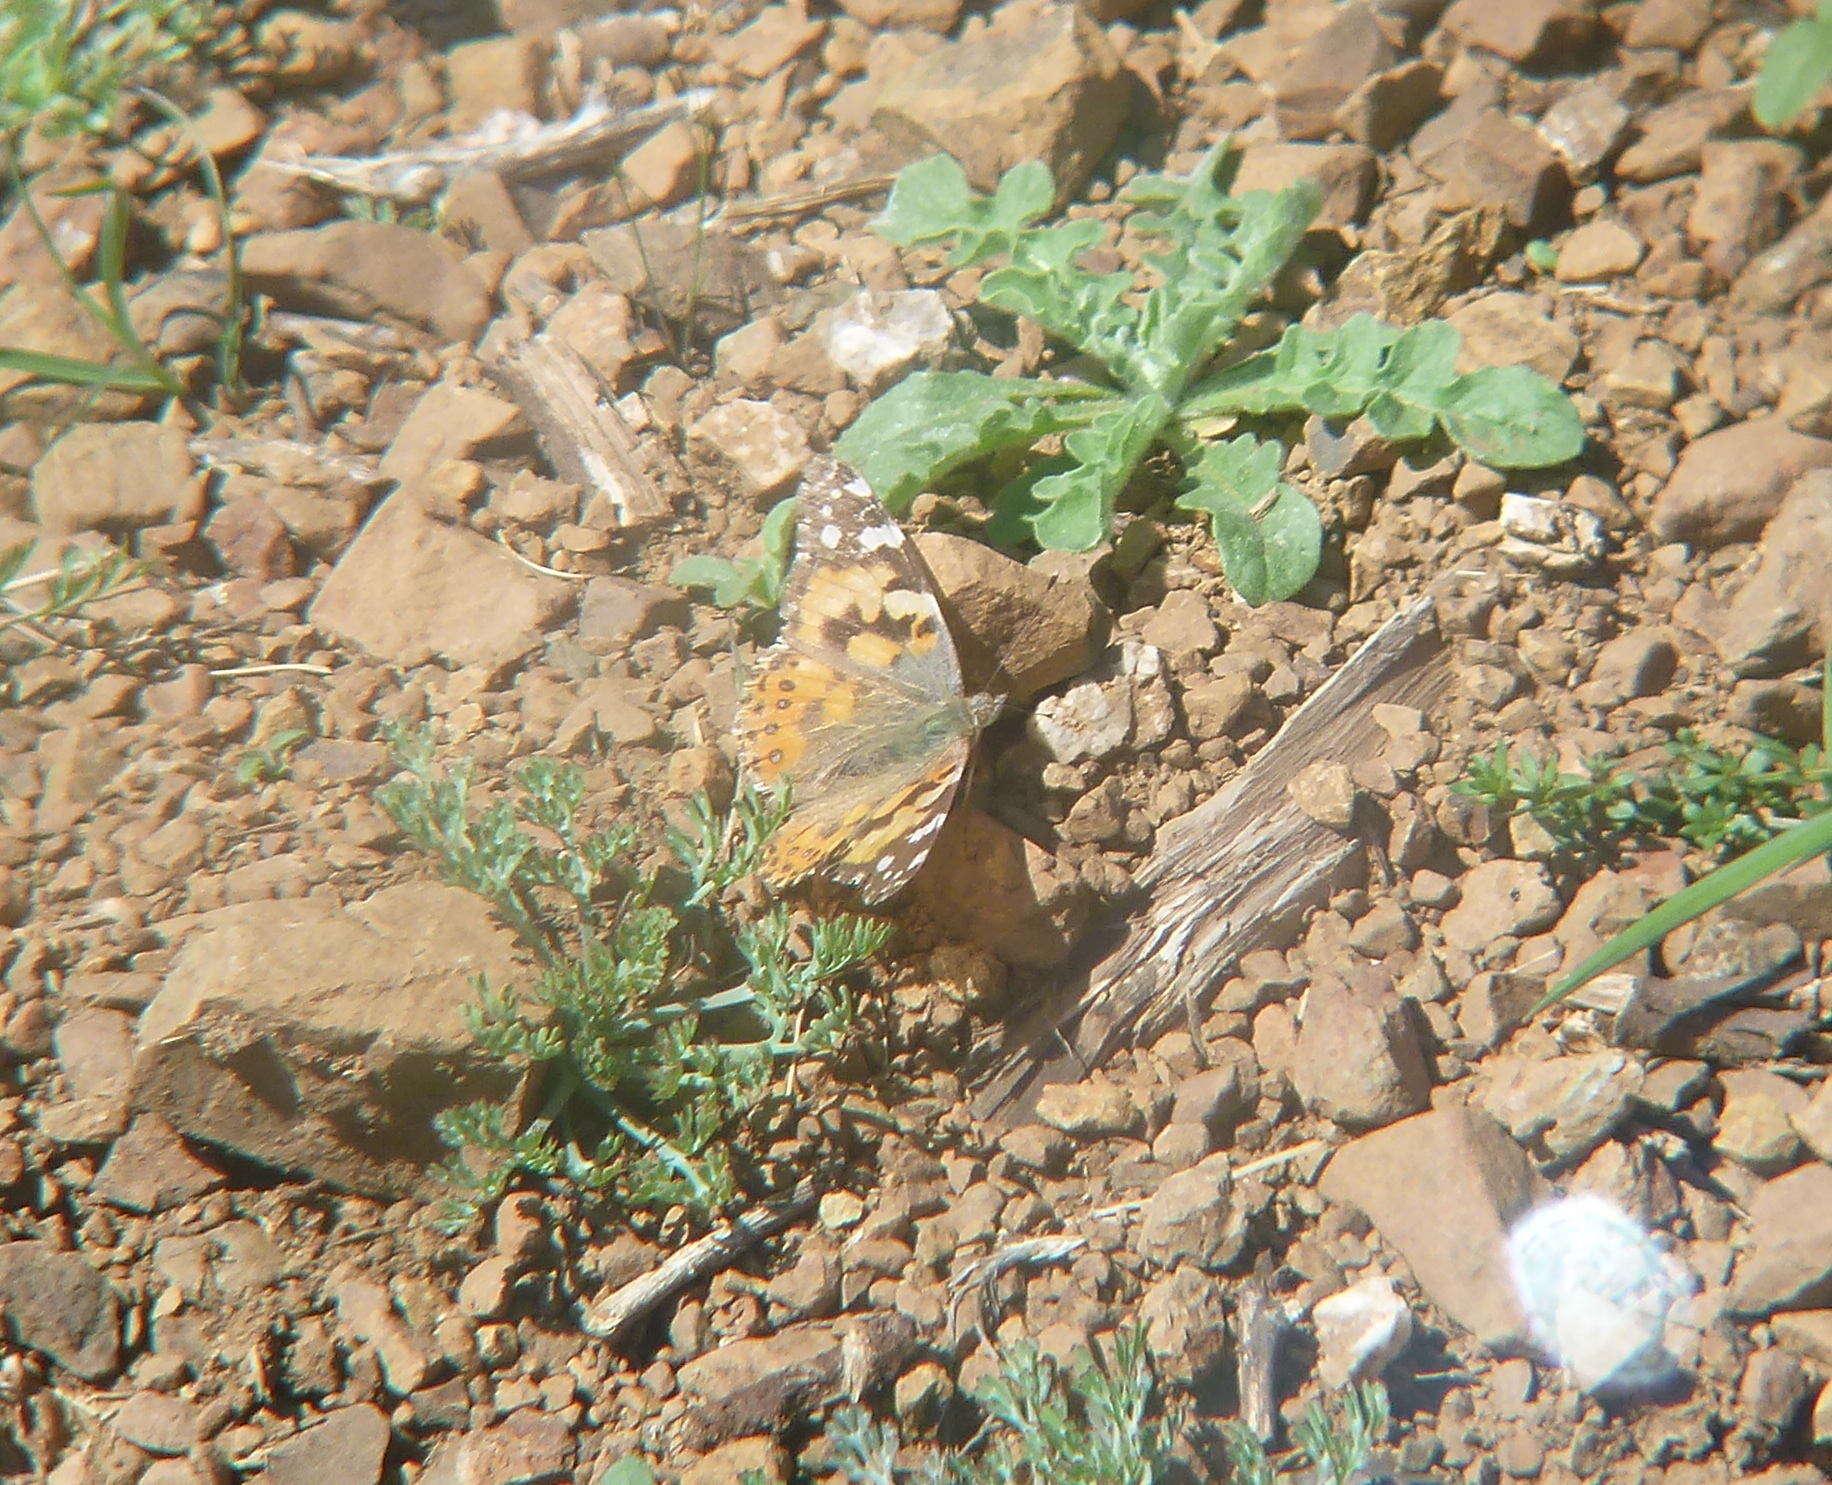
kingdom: Animalia
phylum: Arthropoda
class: Insecta
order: Lepidoptera
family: Nymphalidae
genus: Vanessa
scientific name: Vanessa cardui
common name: Painted lady
